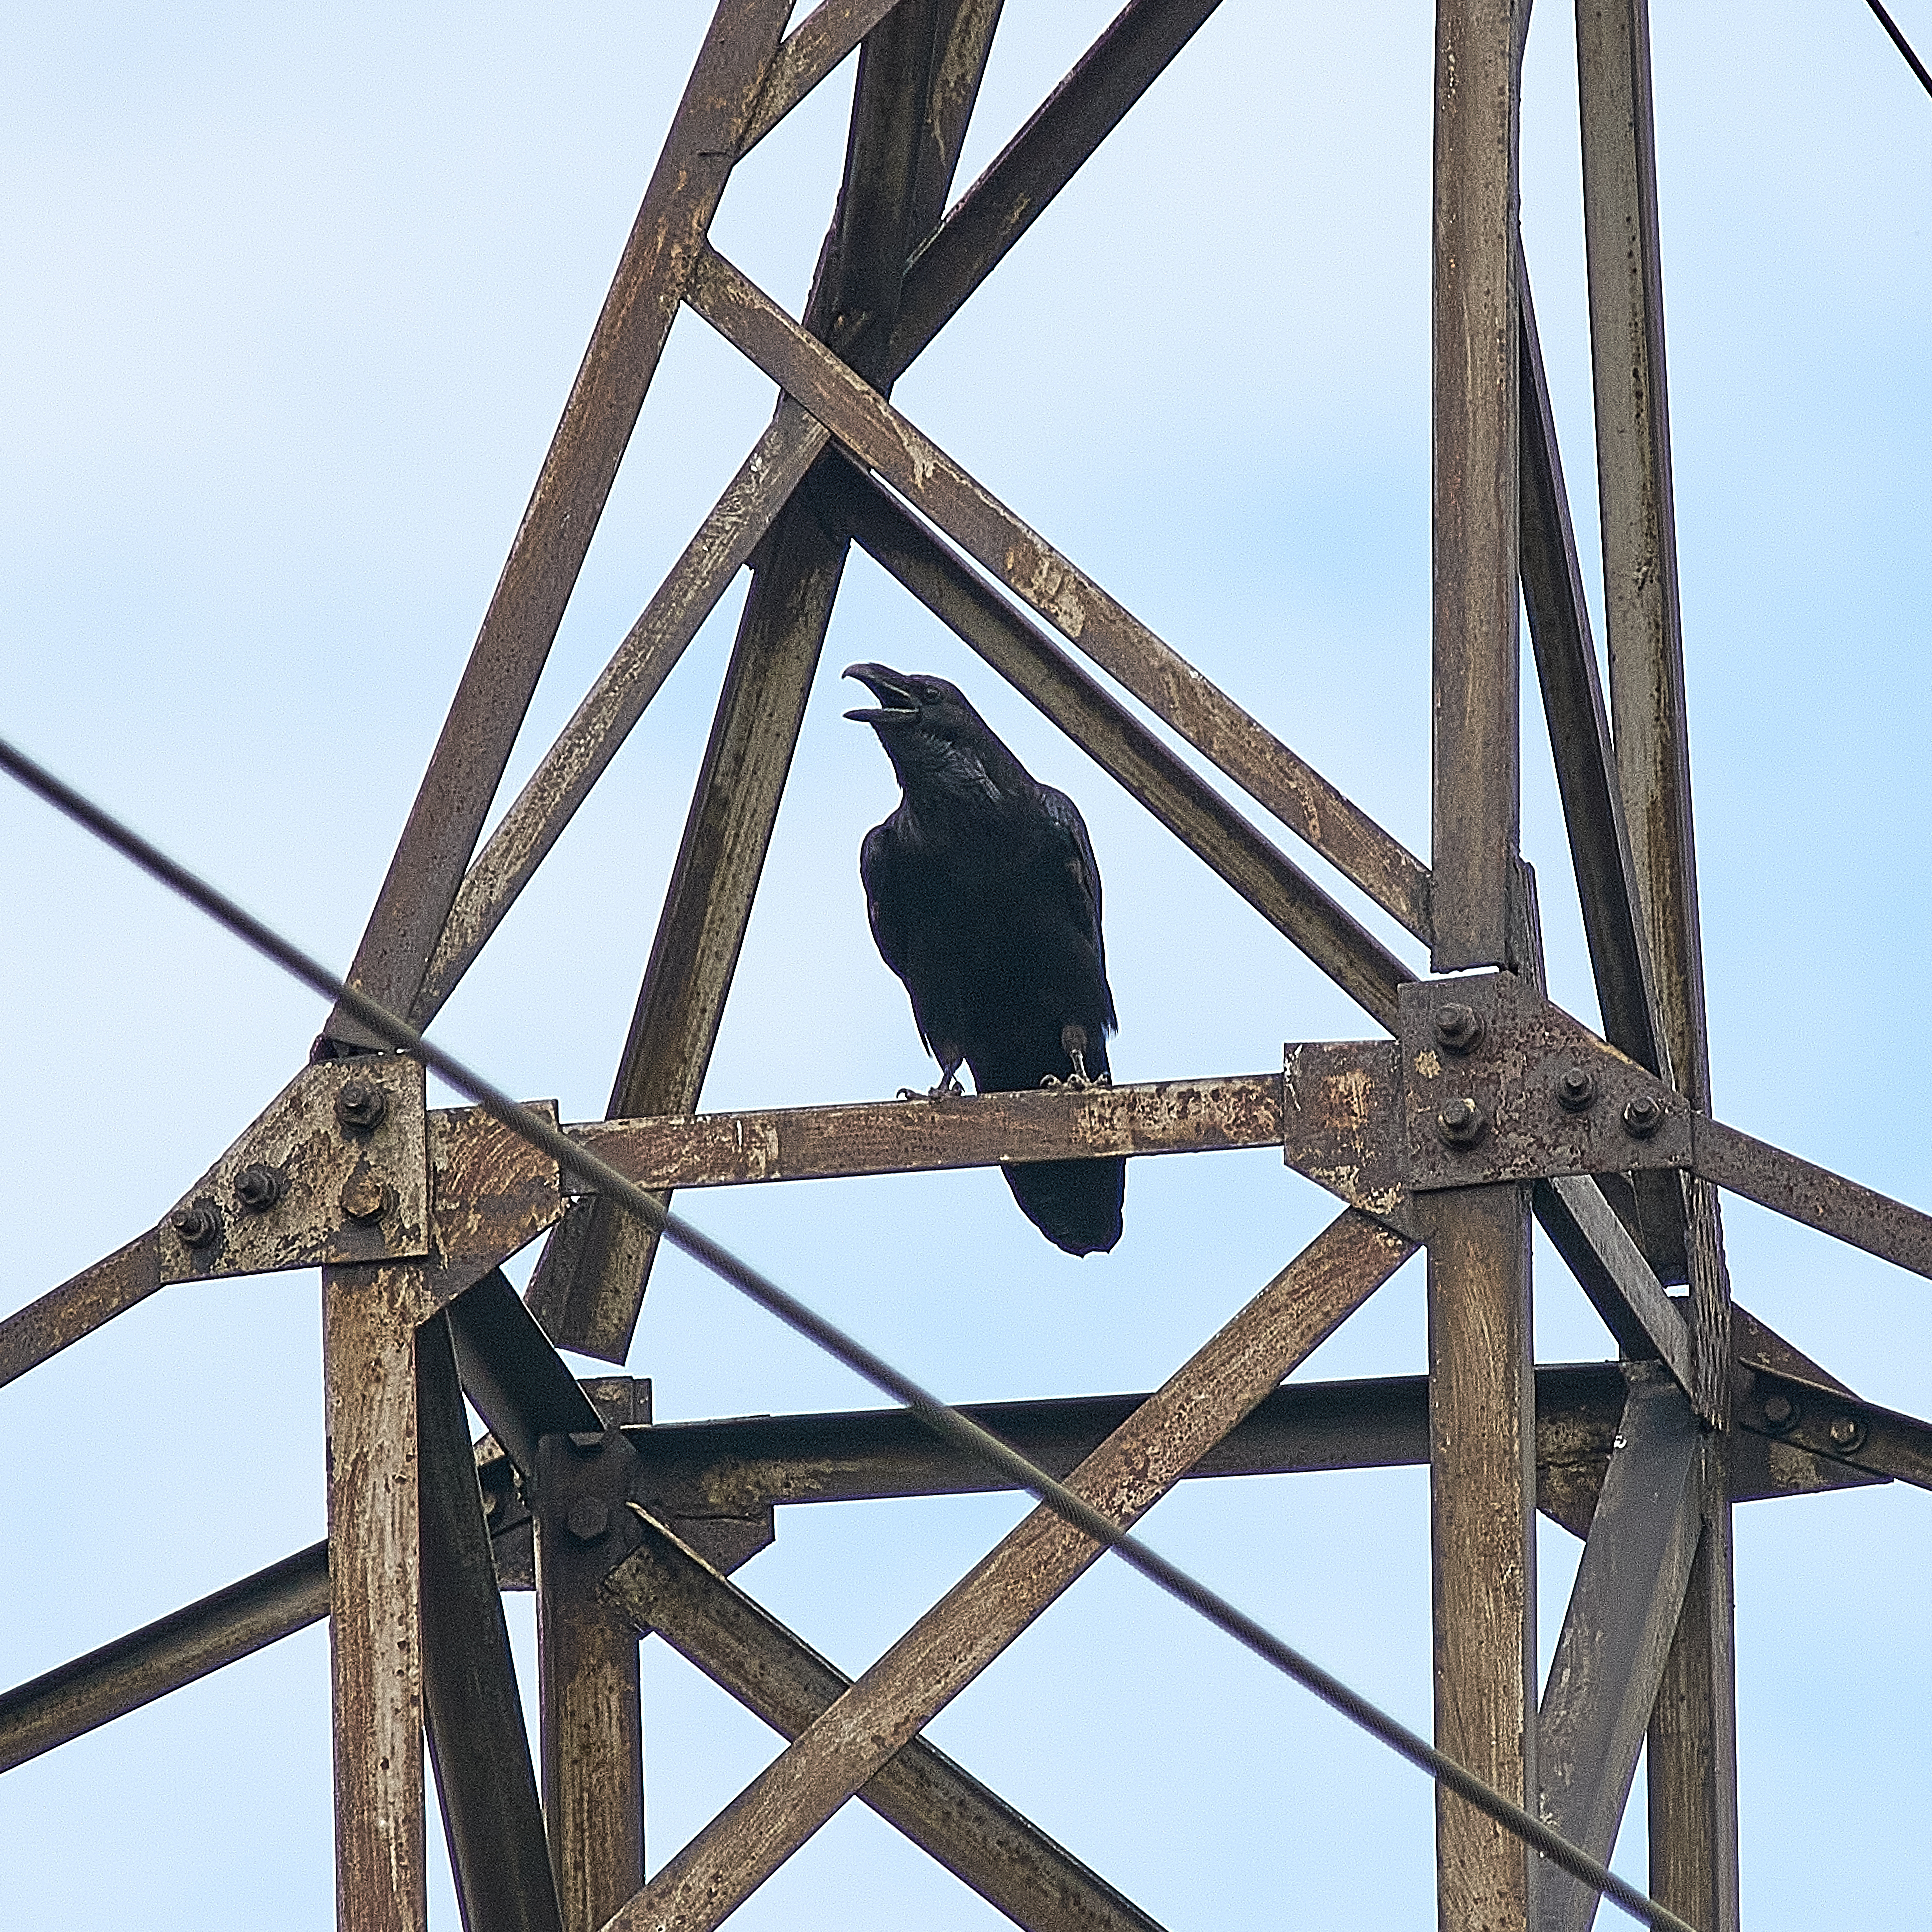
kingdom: Animalia
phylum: Chordata
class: Aves
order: Passeriformes
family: Corvidae
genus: Corvus
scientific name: Corvus corax
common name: Common raven
